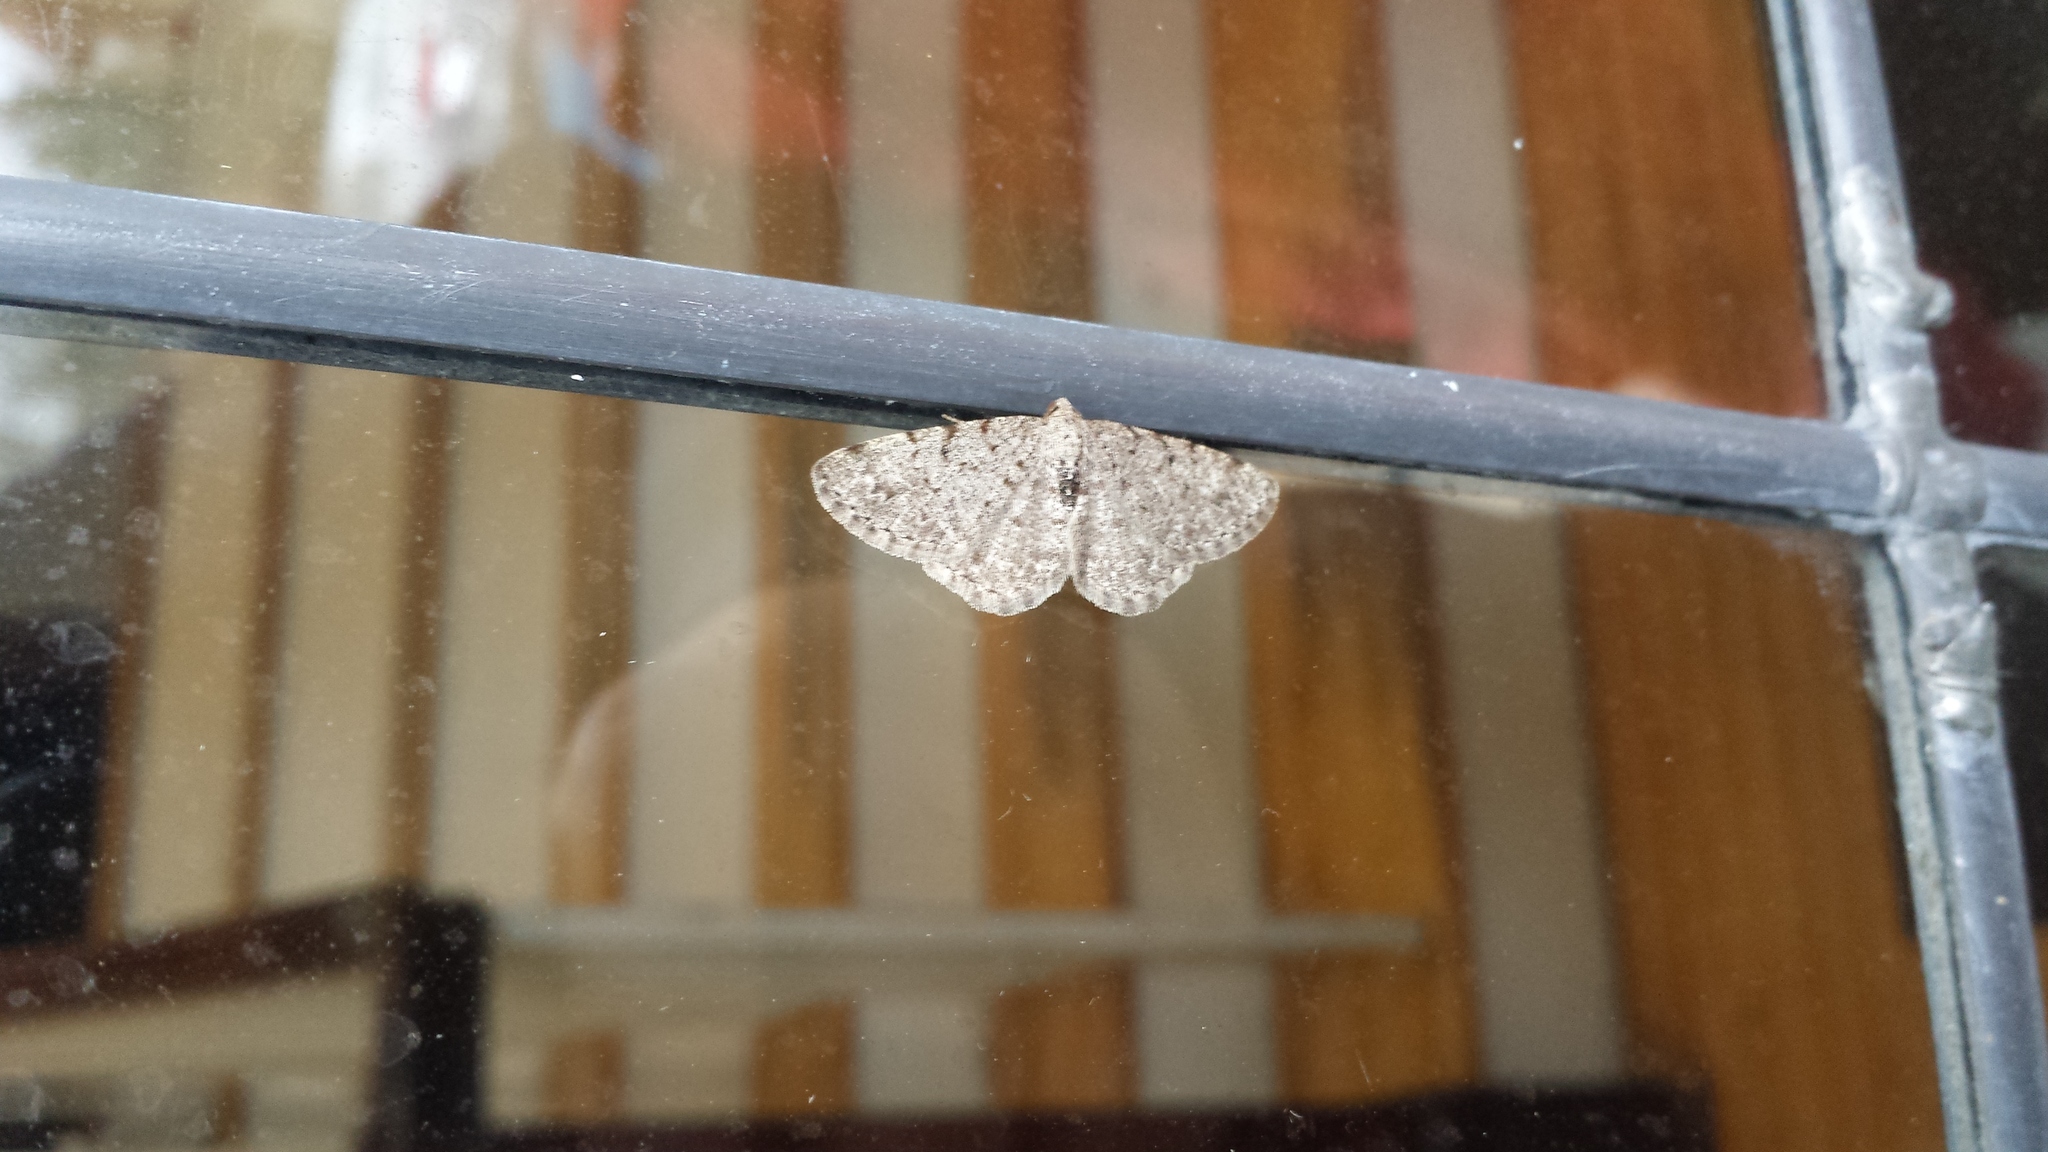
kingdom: Animalia
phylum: Arthropoda
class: Insecta
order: Lepidoptera
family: Geometridae
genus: Aethalura
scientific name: Aethalura intertexta
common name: Four-barred gray
